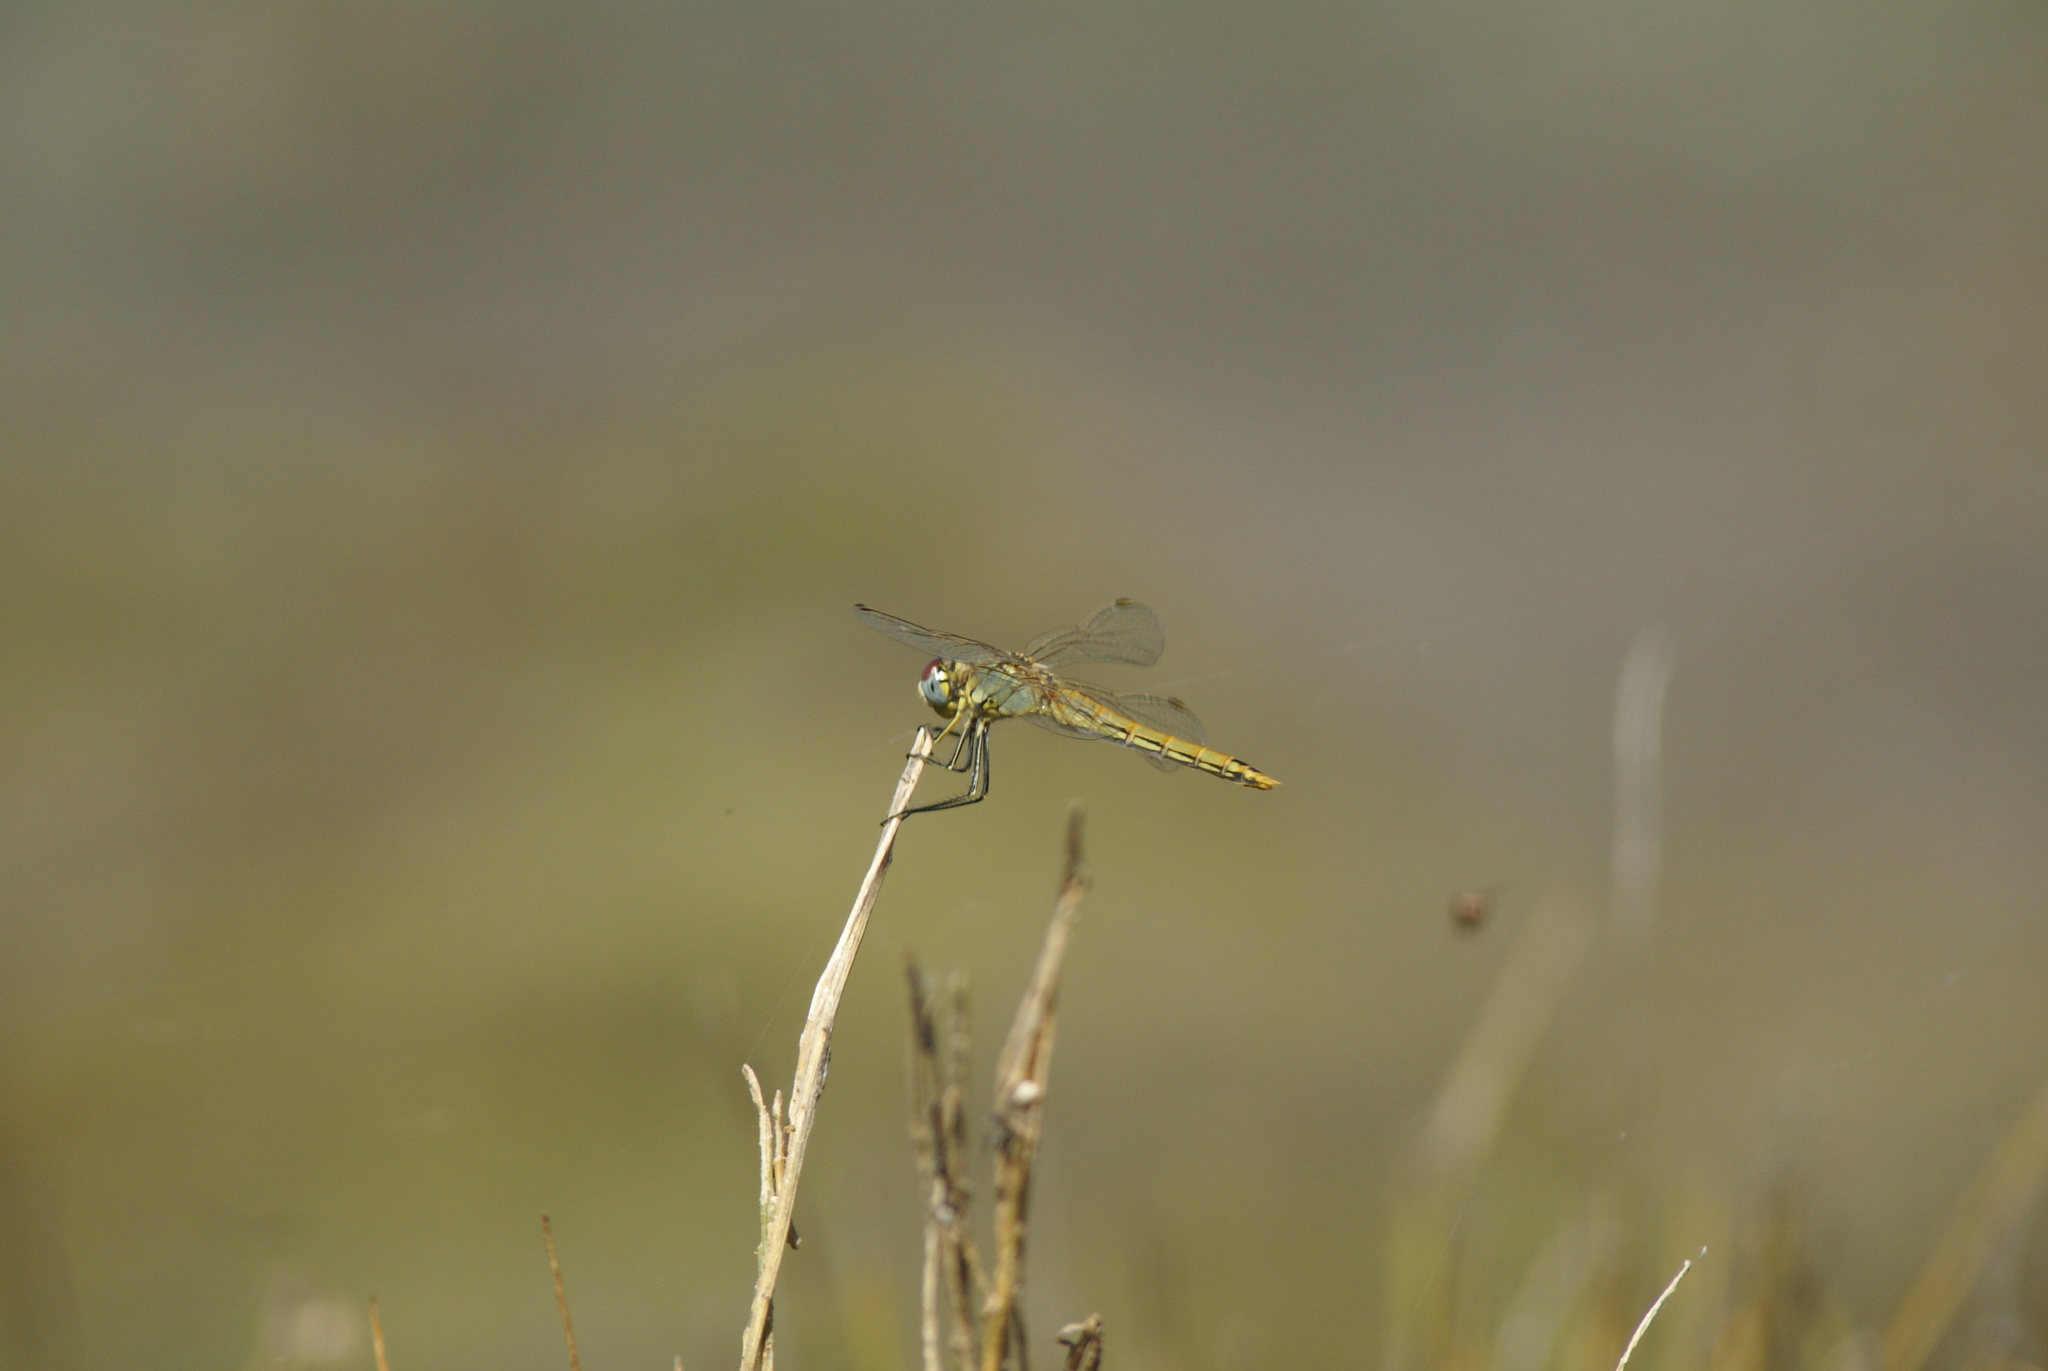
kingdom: Animalia
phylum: Arthropoda
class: Insecta
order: Odonata
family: Libellulidae
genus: Sympetrum
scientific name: Sympetrum fonscolombii
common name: Red-veined darter
